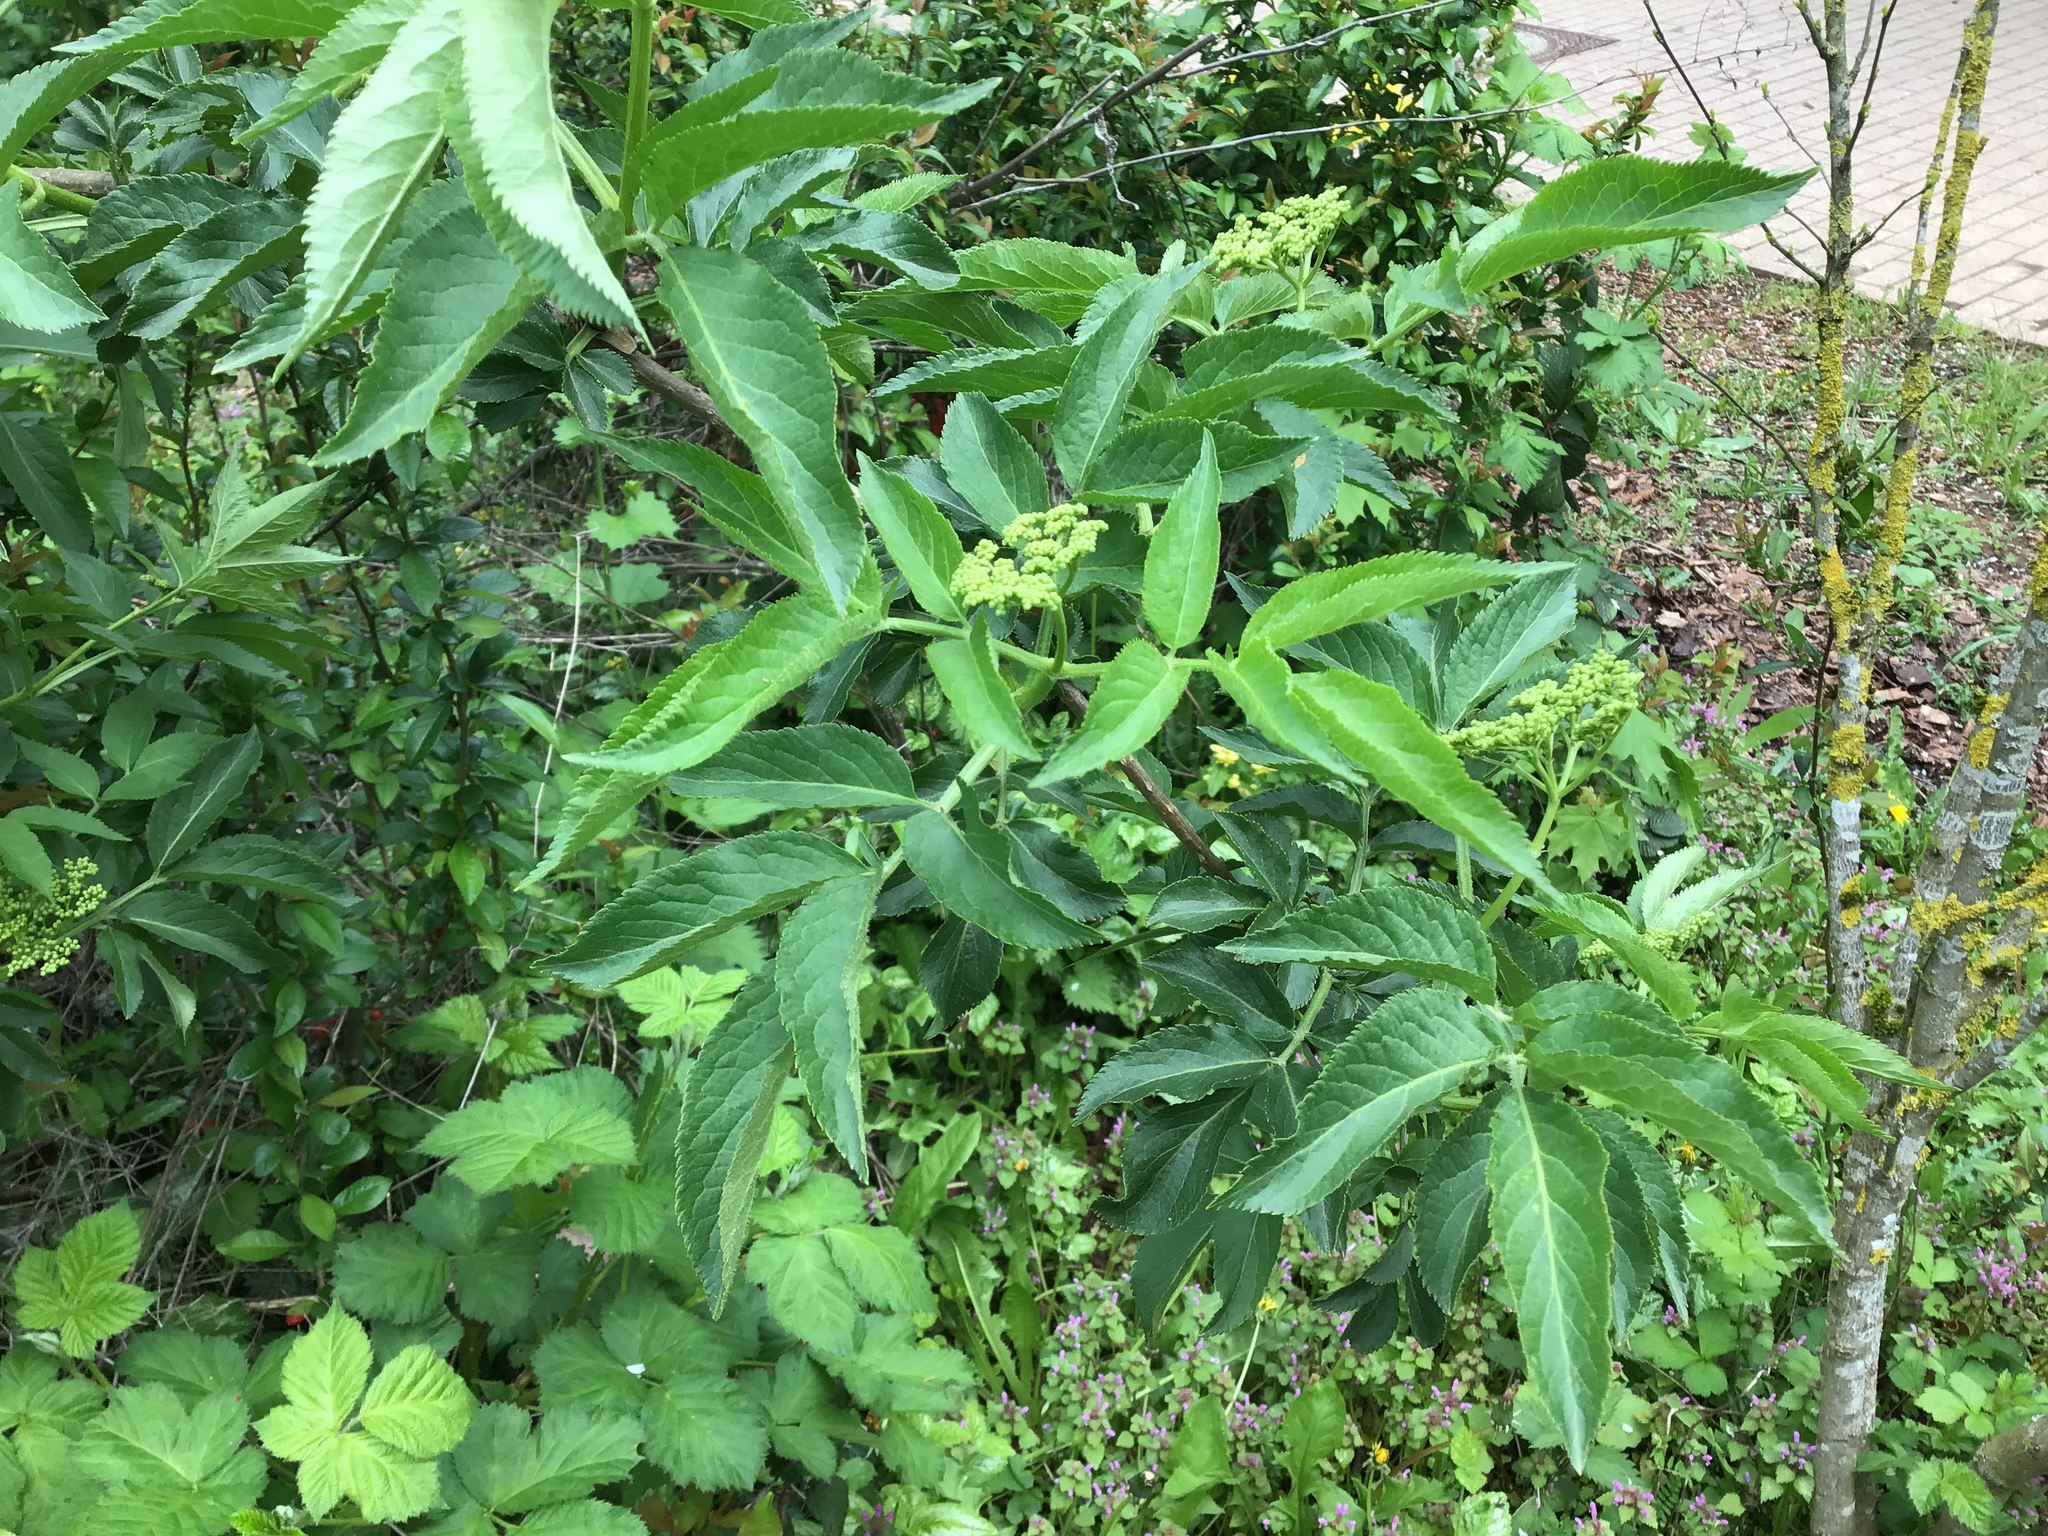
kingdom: Plantae
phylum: Tracheophyta
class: Magnoliopsida
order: Dipsacales
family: Viburnaceae
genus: Sambucus
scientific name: Sambucus nigra
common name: Elder
